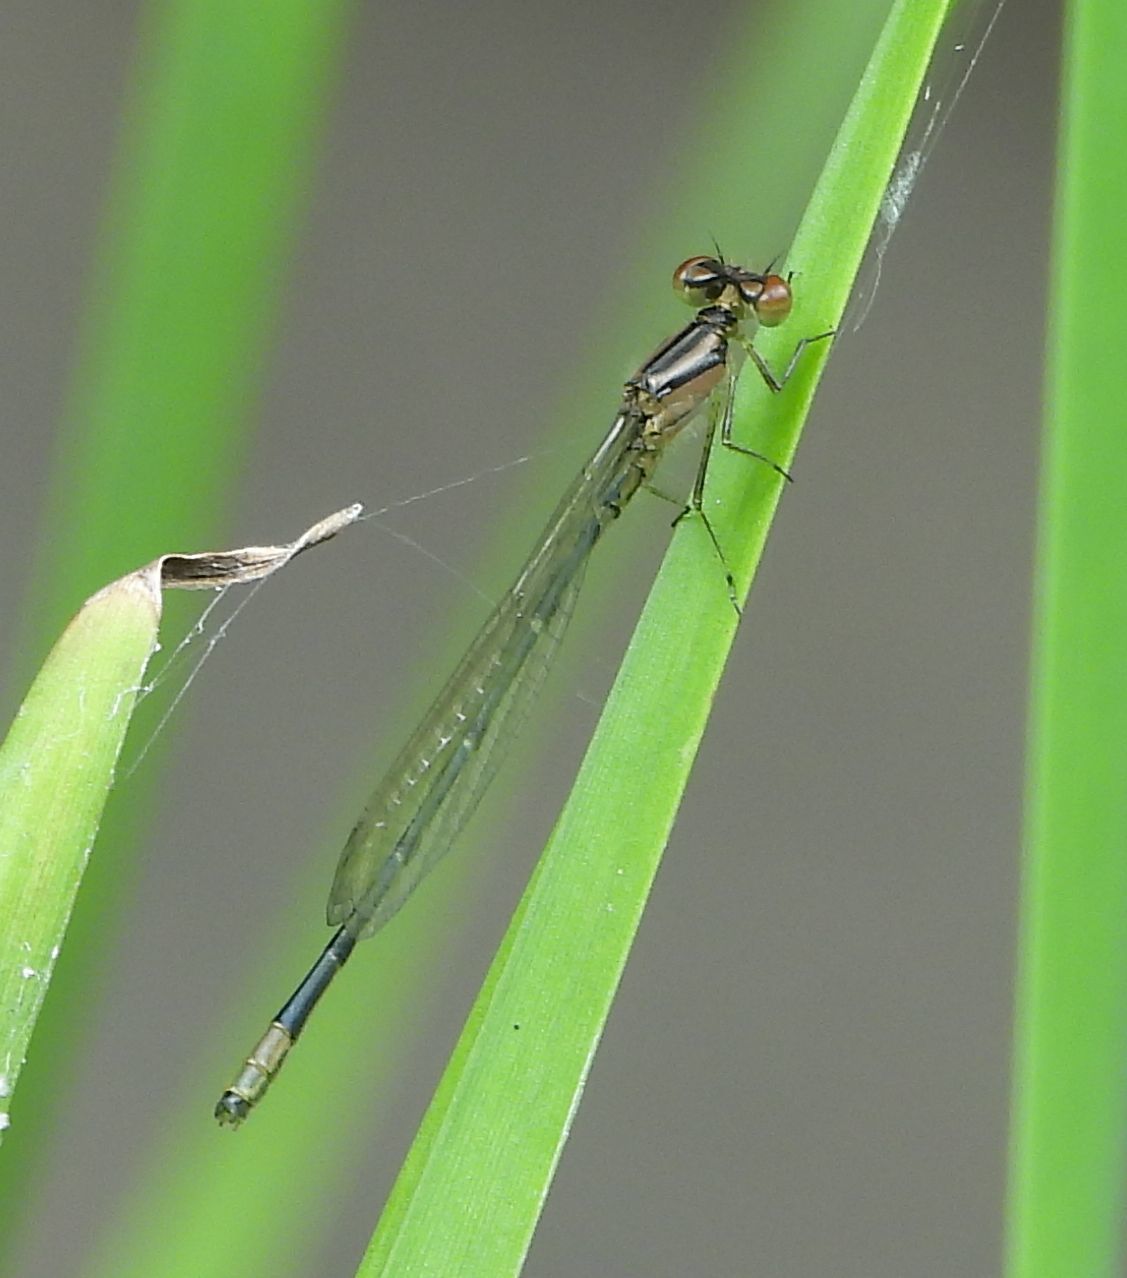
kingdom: Animalia
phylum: Arthropoda
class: Insecta
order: Odonata
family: Coenagrionidae
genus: Enallagma
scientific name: Enallagma geminatum
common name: Skimming bluet
